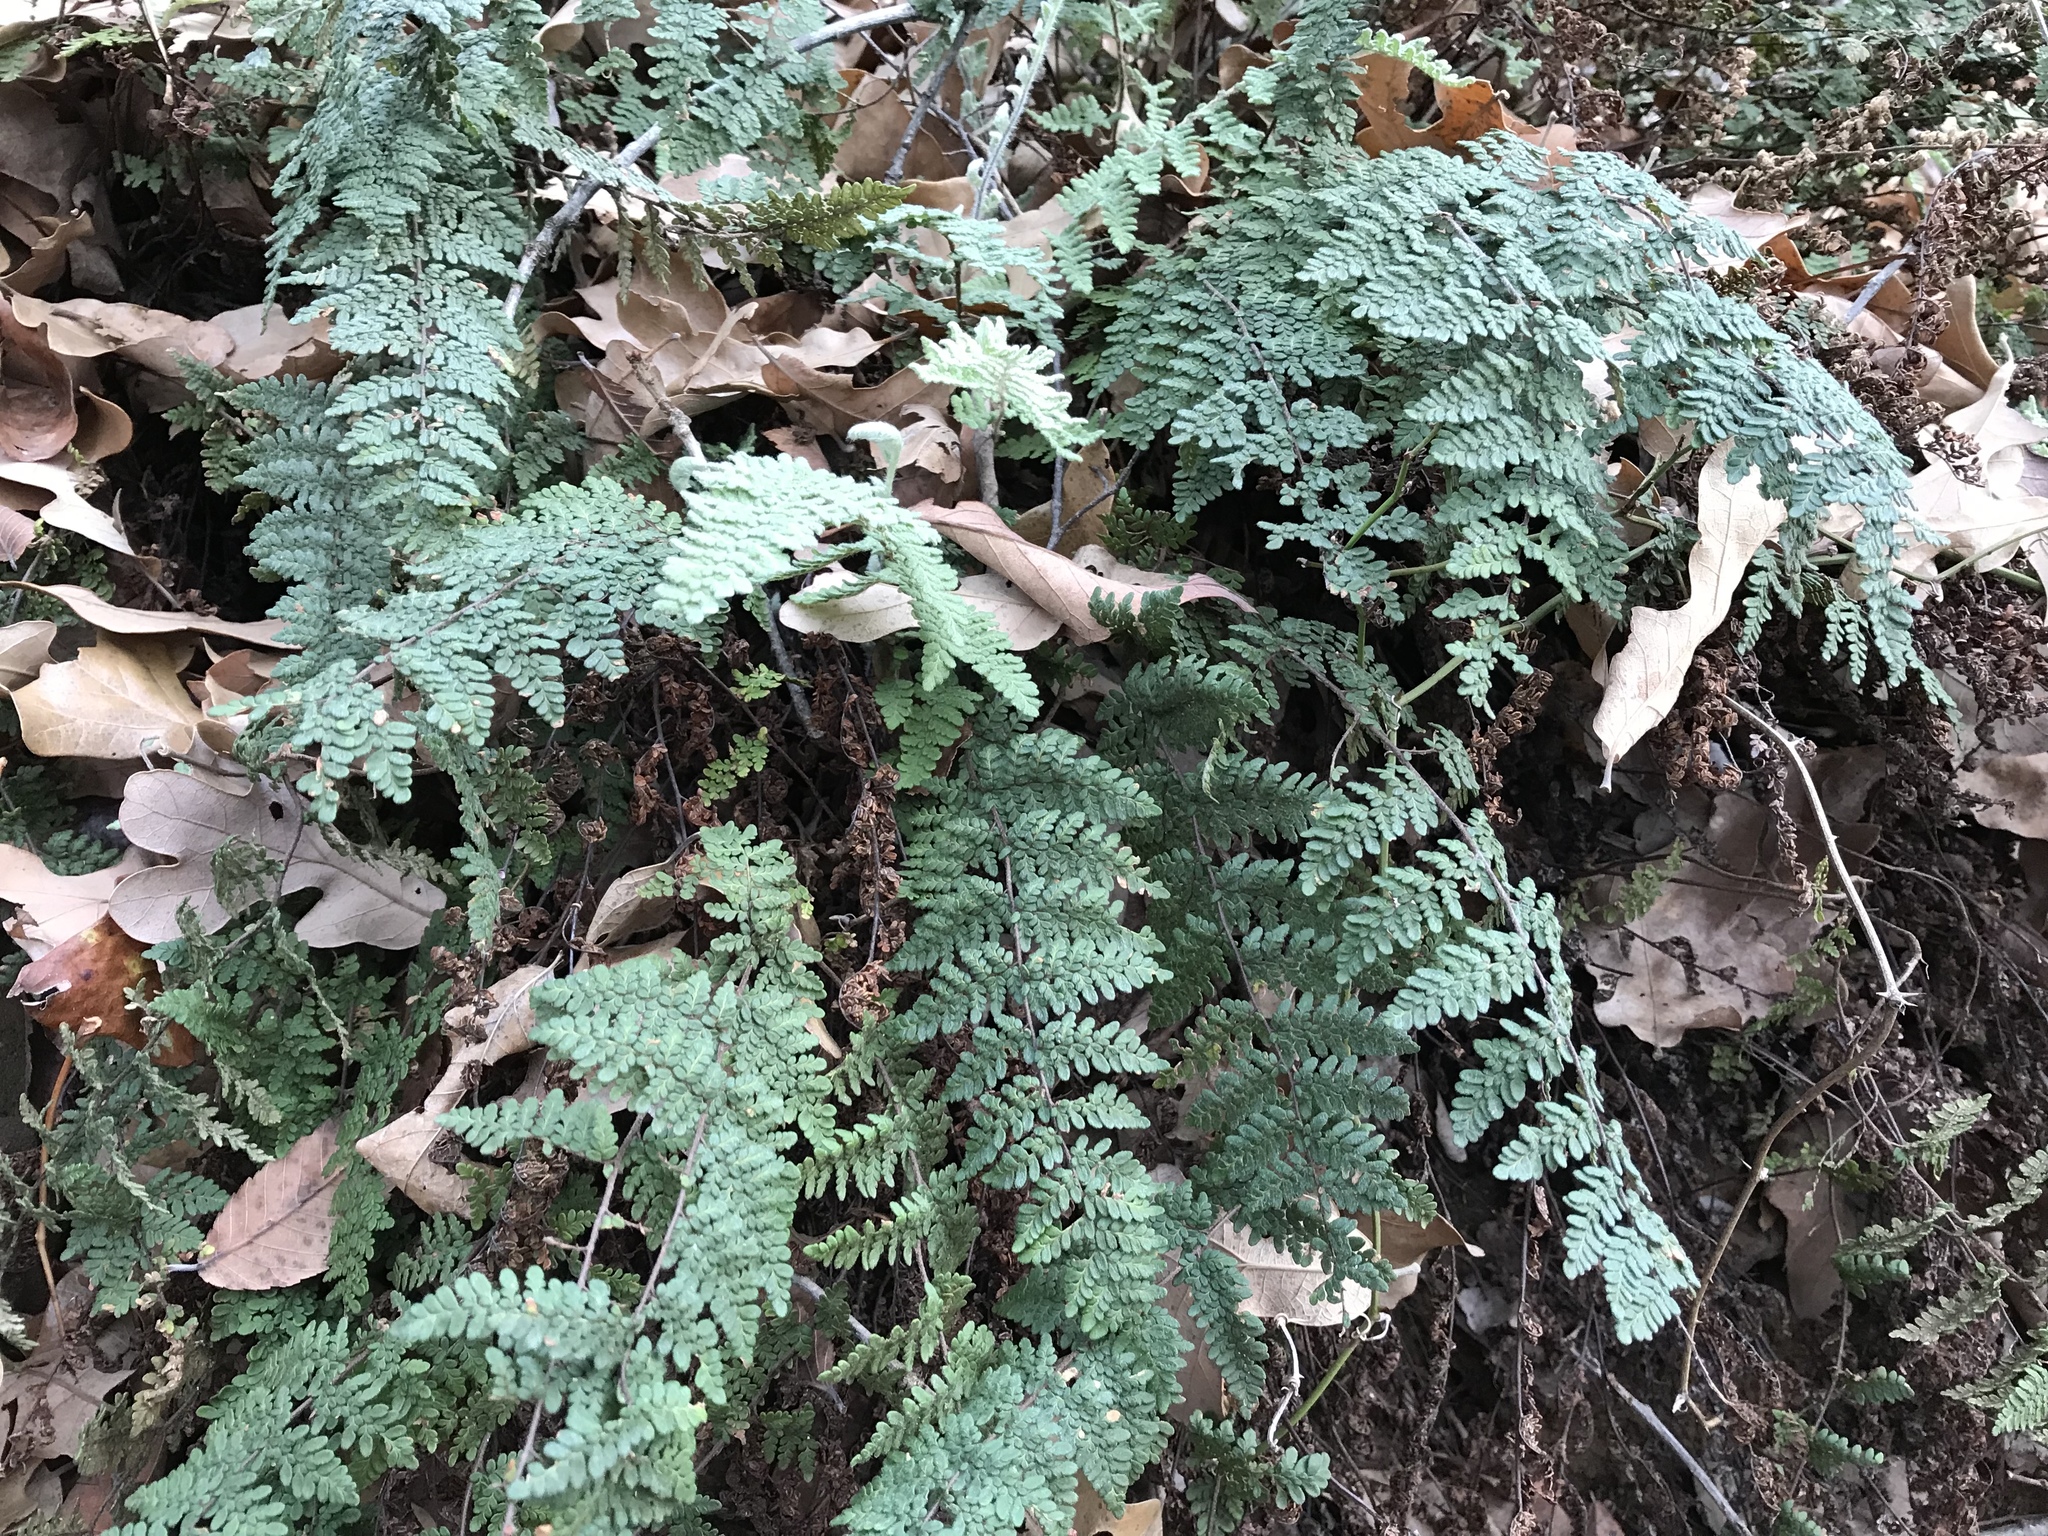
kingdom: Plantae
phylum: Tracheophyta
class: Polypodiopsida
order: Polypodiales
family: Pteridaceae
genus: Myriopteris
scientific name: Myriopteris tomentosa
